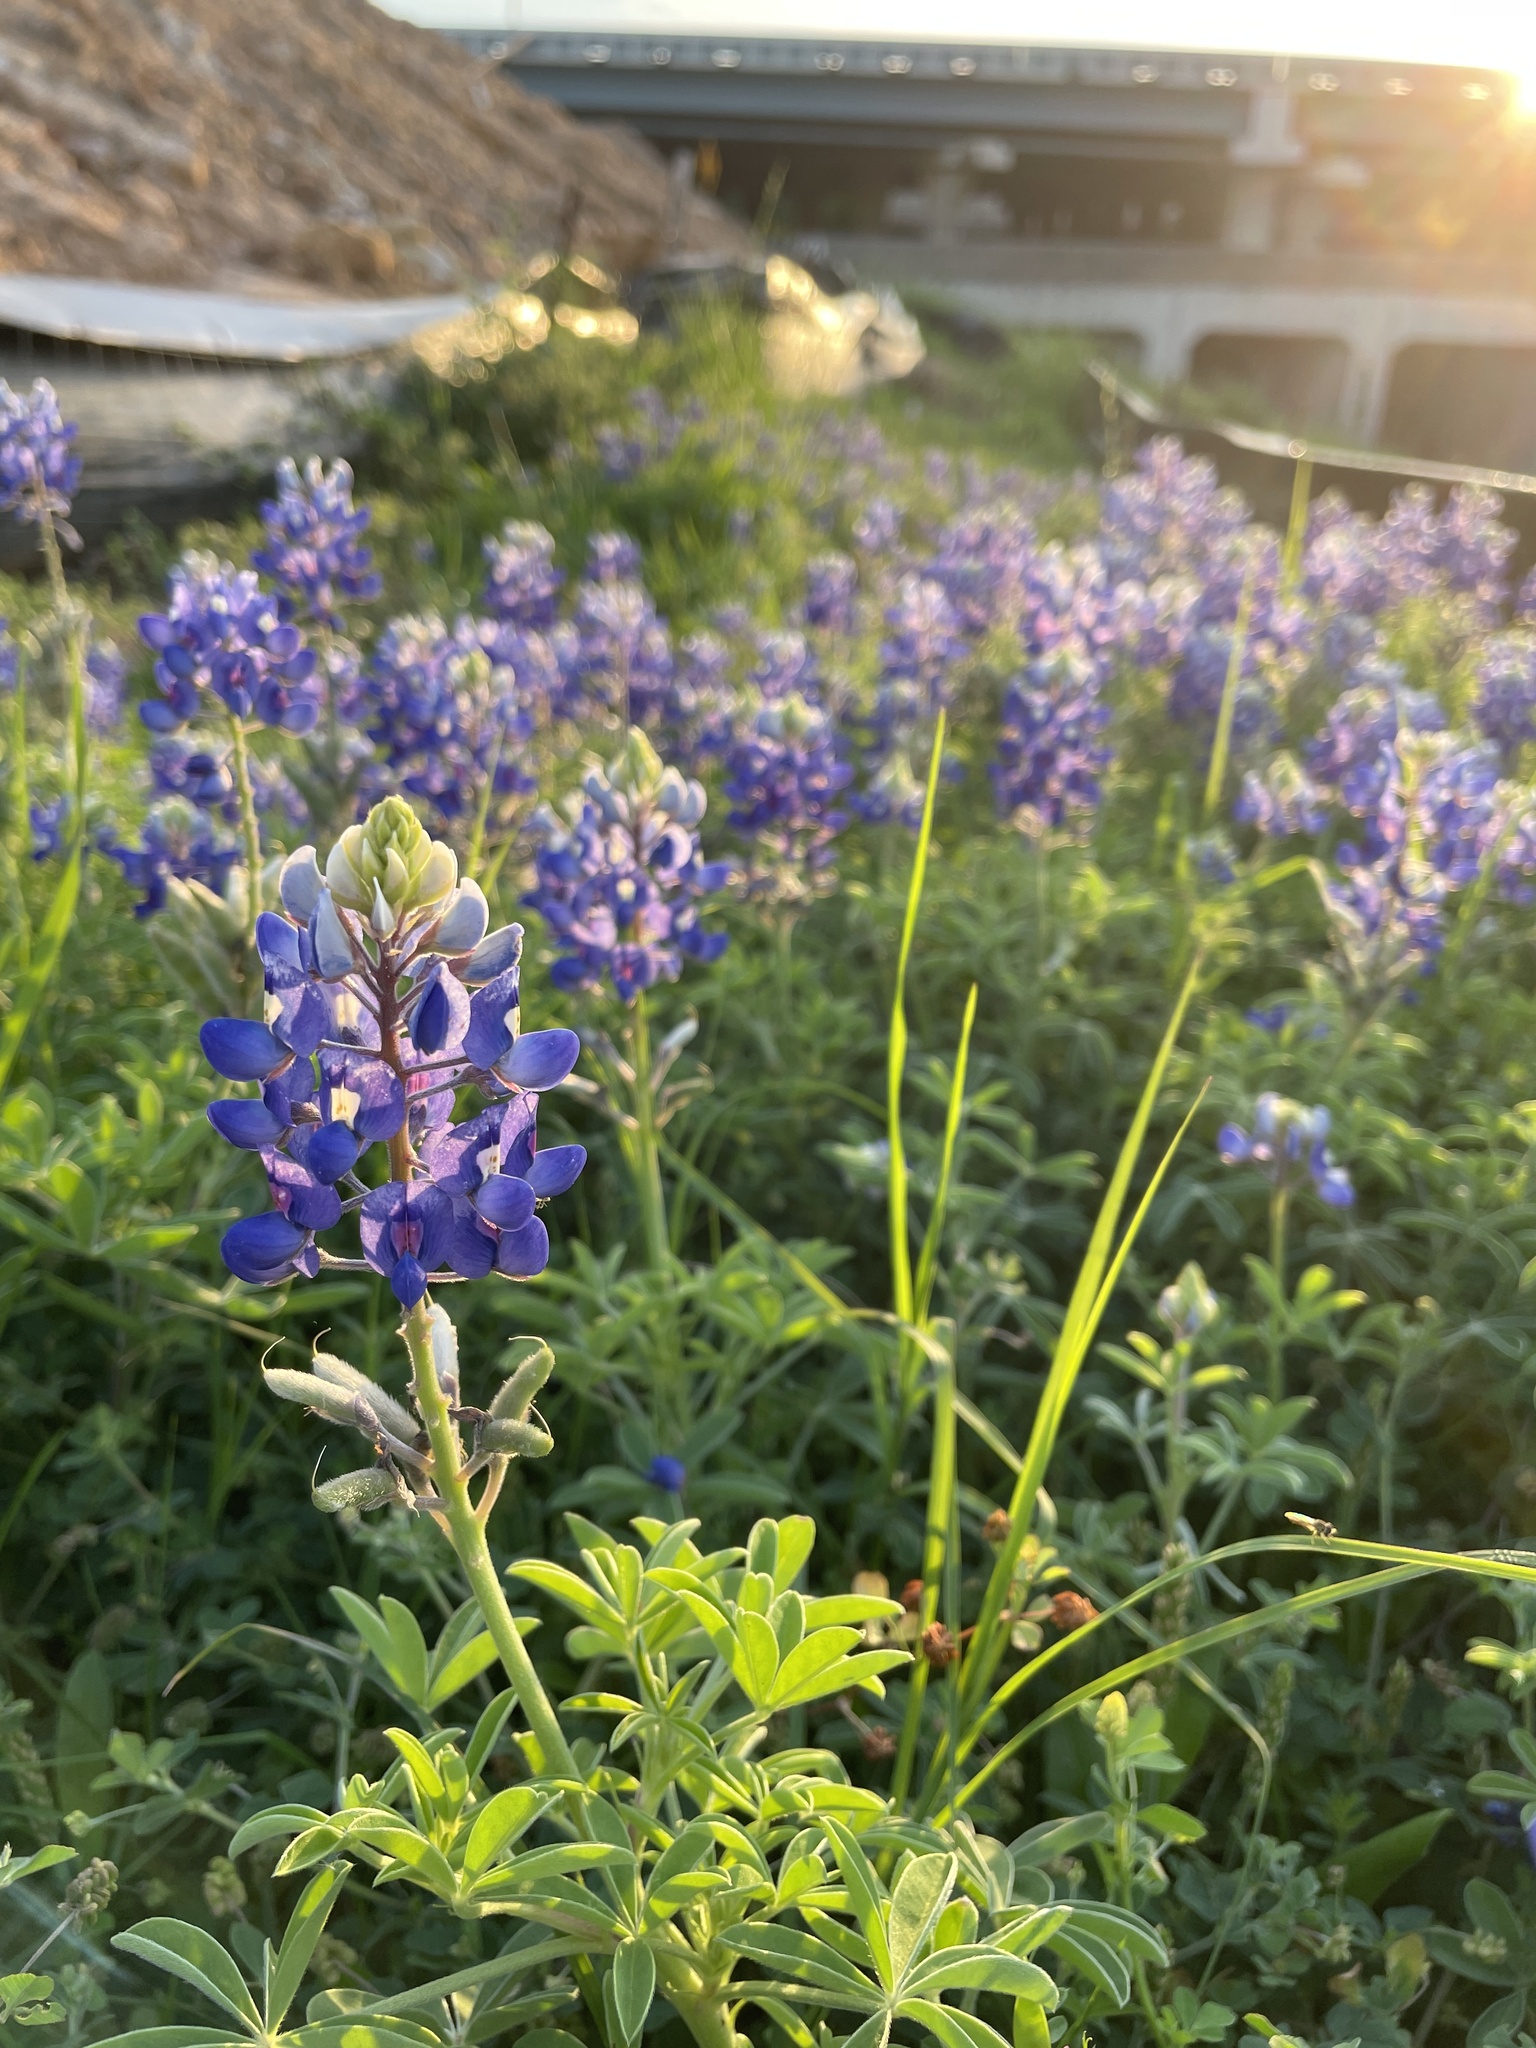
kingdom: Plantae
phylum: Tracheophyta
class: Magnoliopsida
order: Fabales
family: Fabaceae
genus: Lupinus
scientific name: Lupinus texensis
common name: Texas bluebonnet
